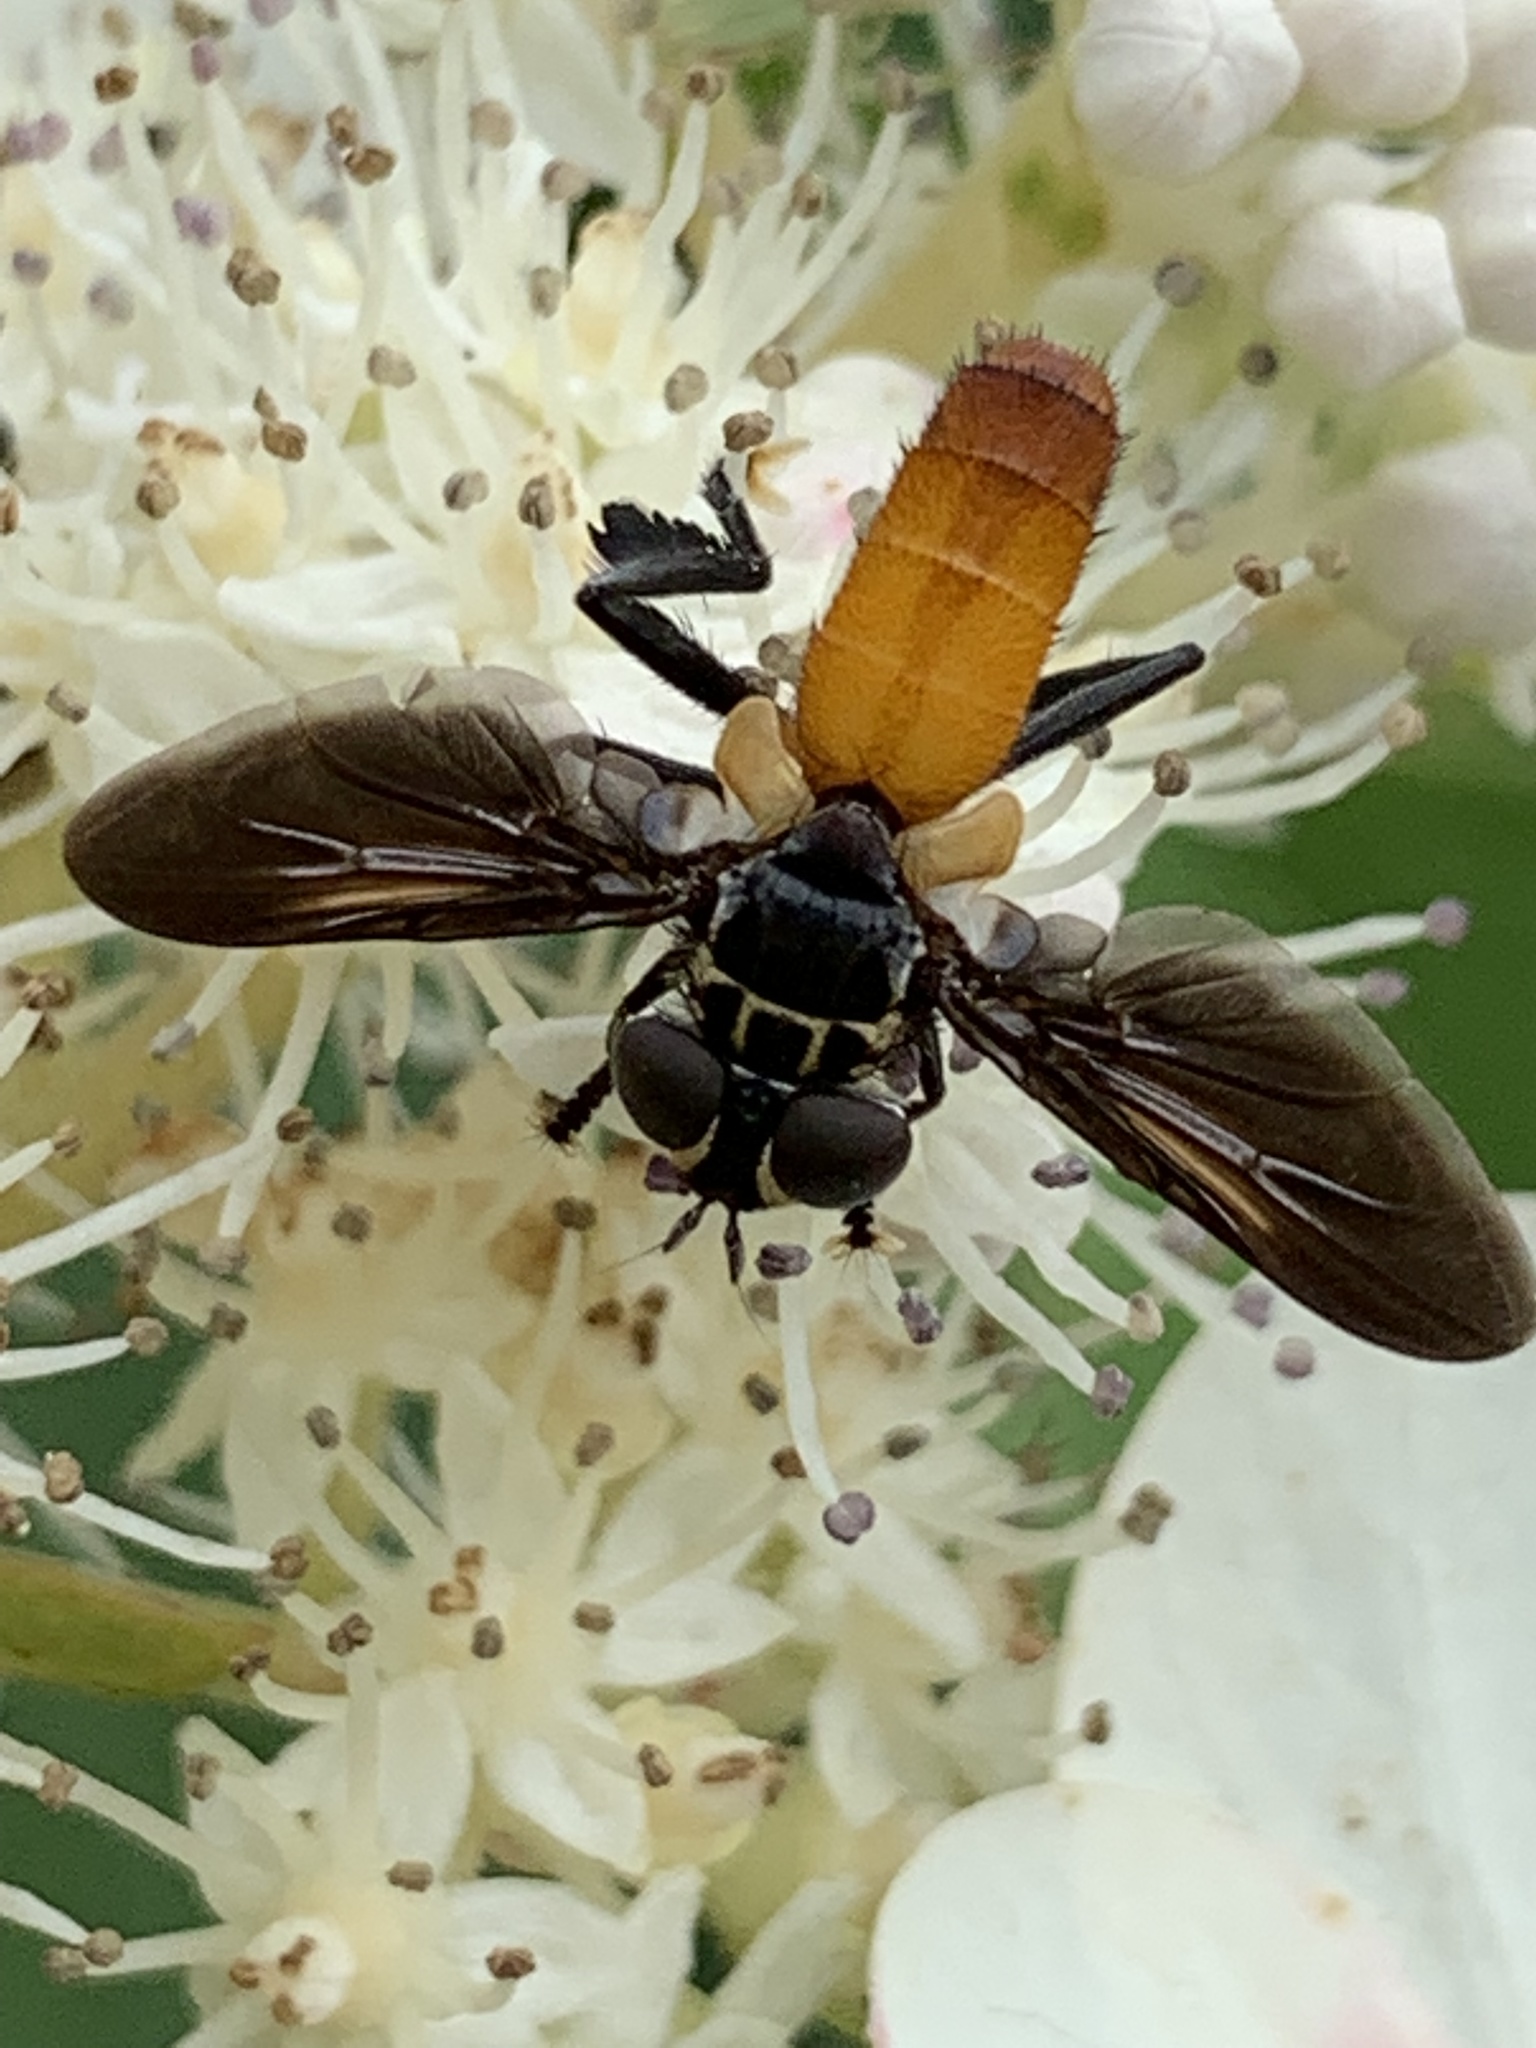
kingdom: Animalia
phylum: Arthropoda
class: Insecta
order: Diptera
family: Tachinidae
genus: Trichopoda
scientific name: Trichopoda pennipes
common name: Tachinid fly
